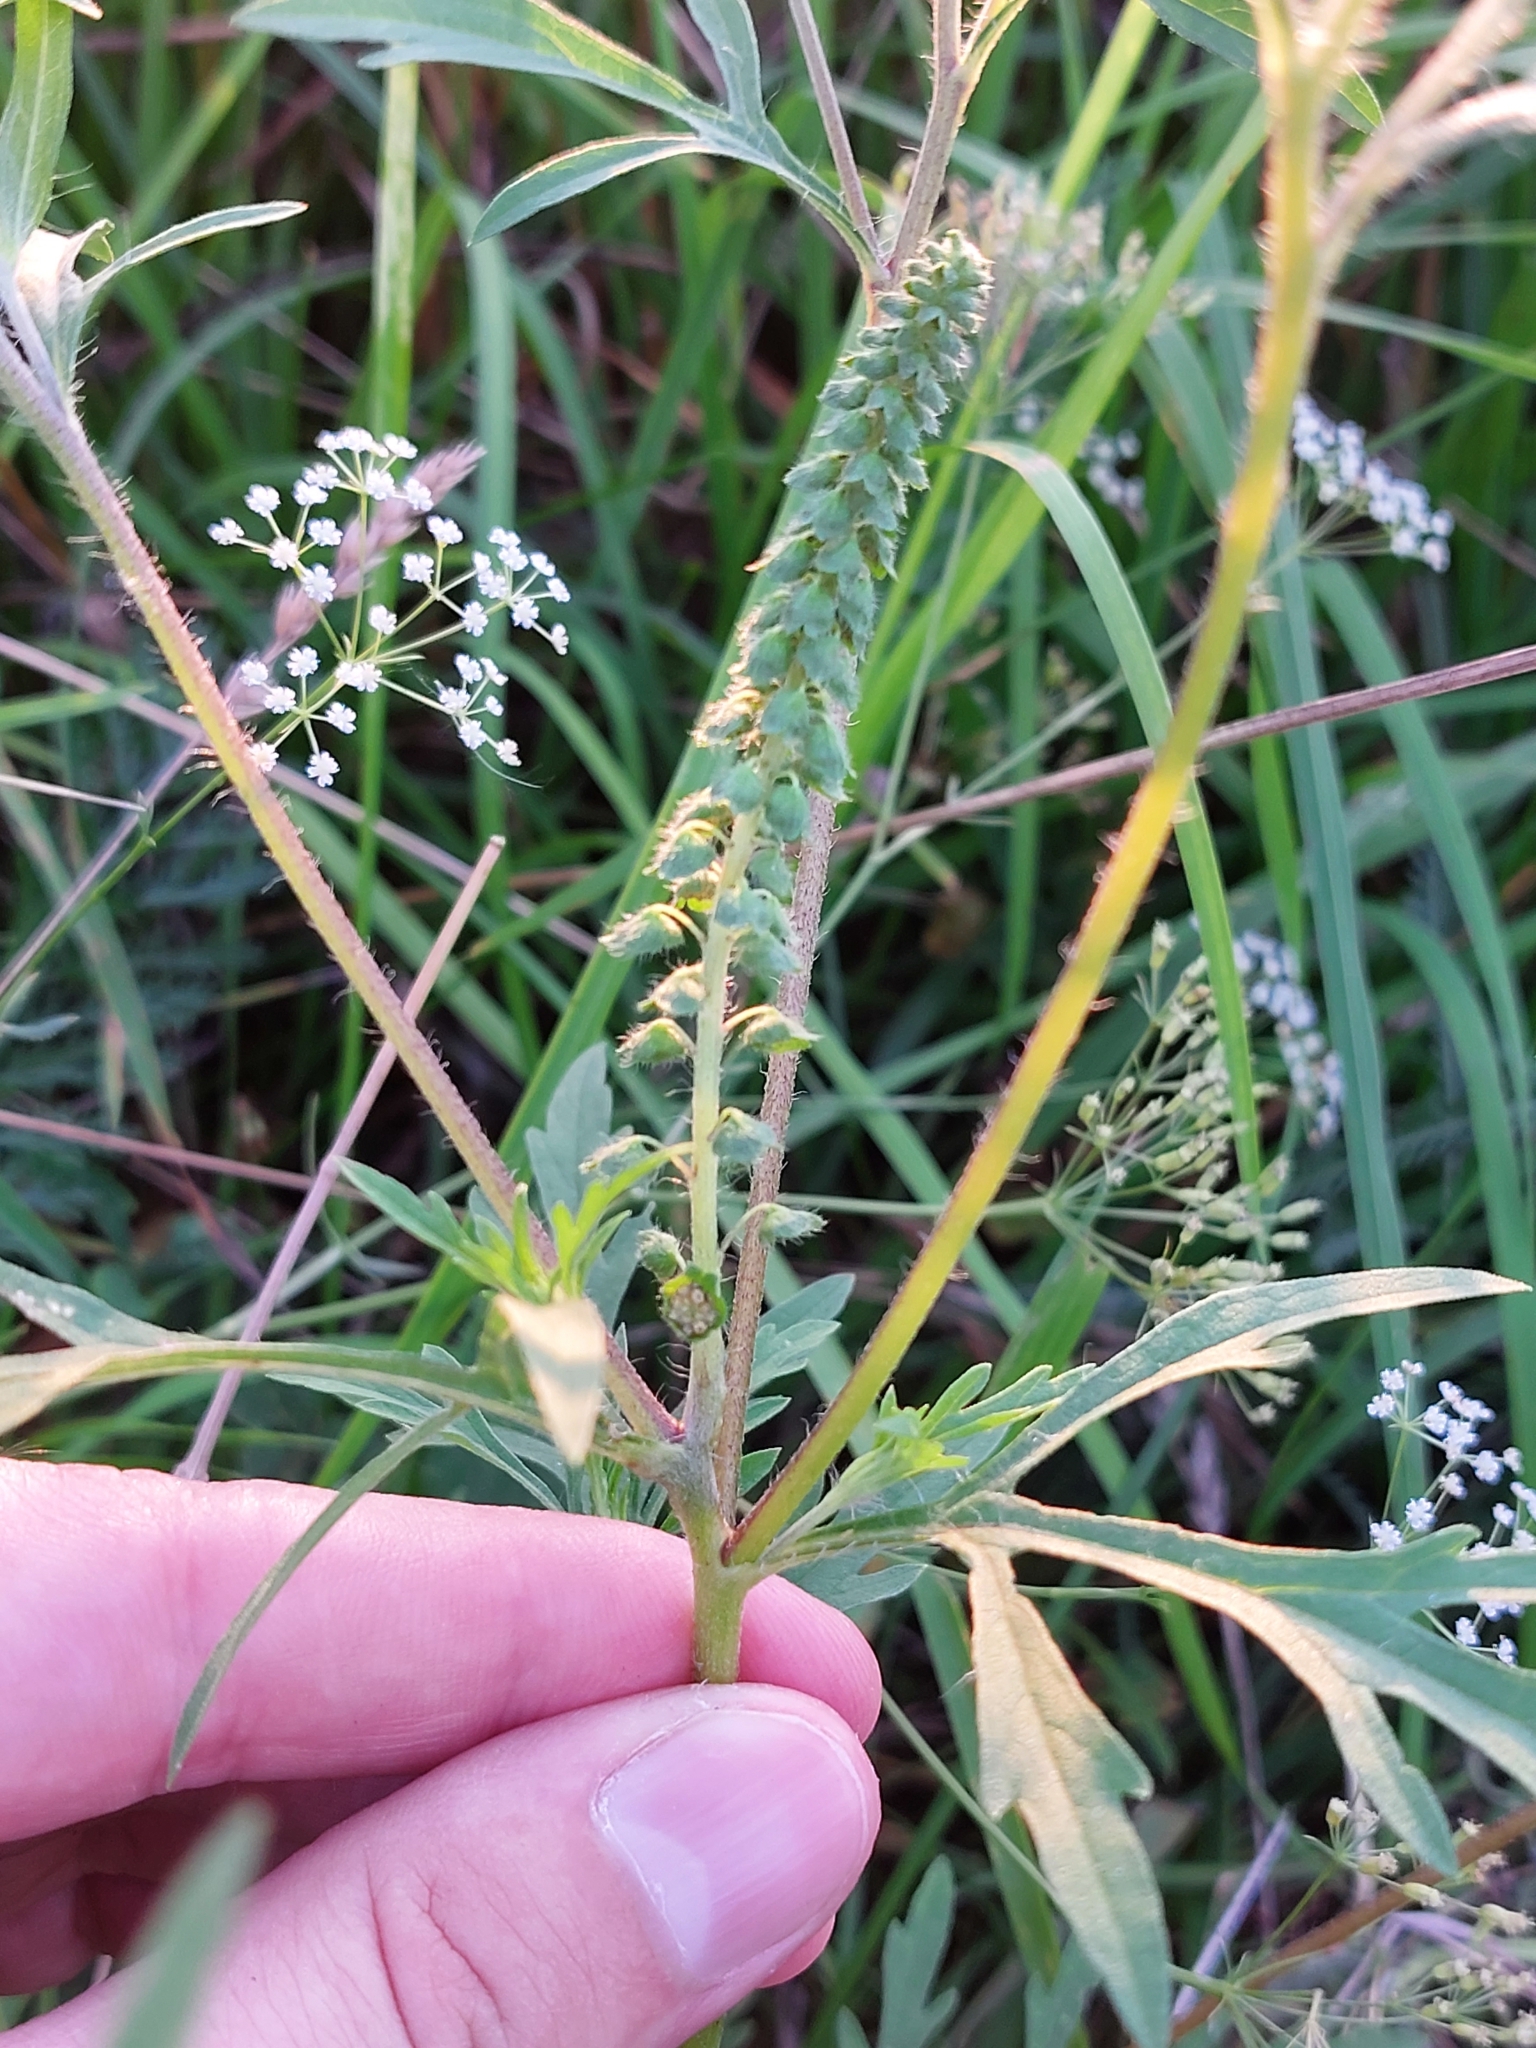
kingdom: Plantae
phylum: Tracheophyta
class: Magnoliopsida
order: Asterales
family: Asteraceae
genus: Ambrosia
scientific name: Ambrosia artemisiifolia
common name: Annual ragweed
